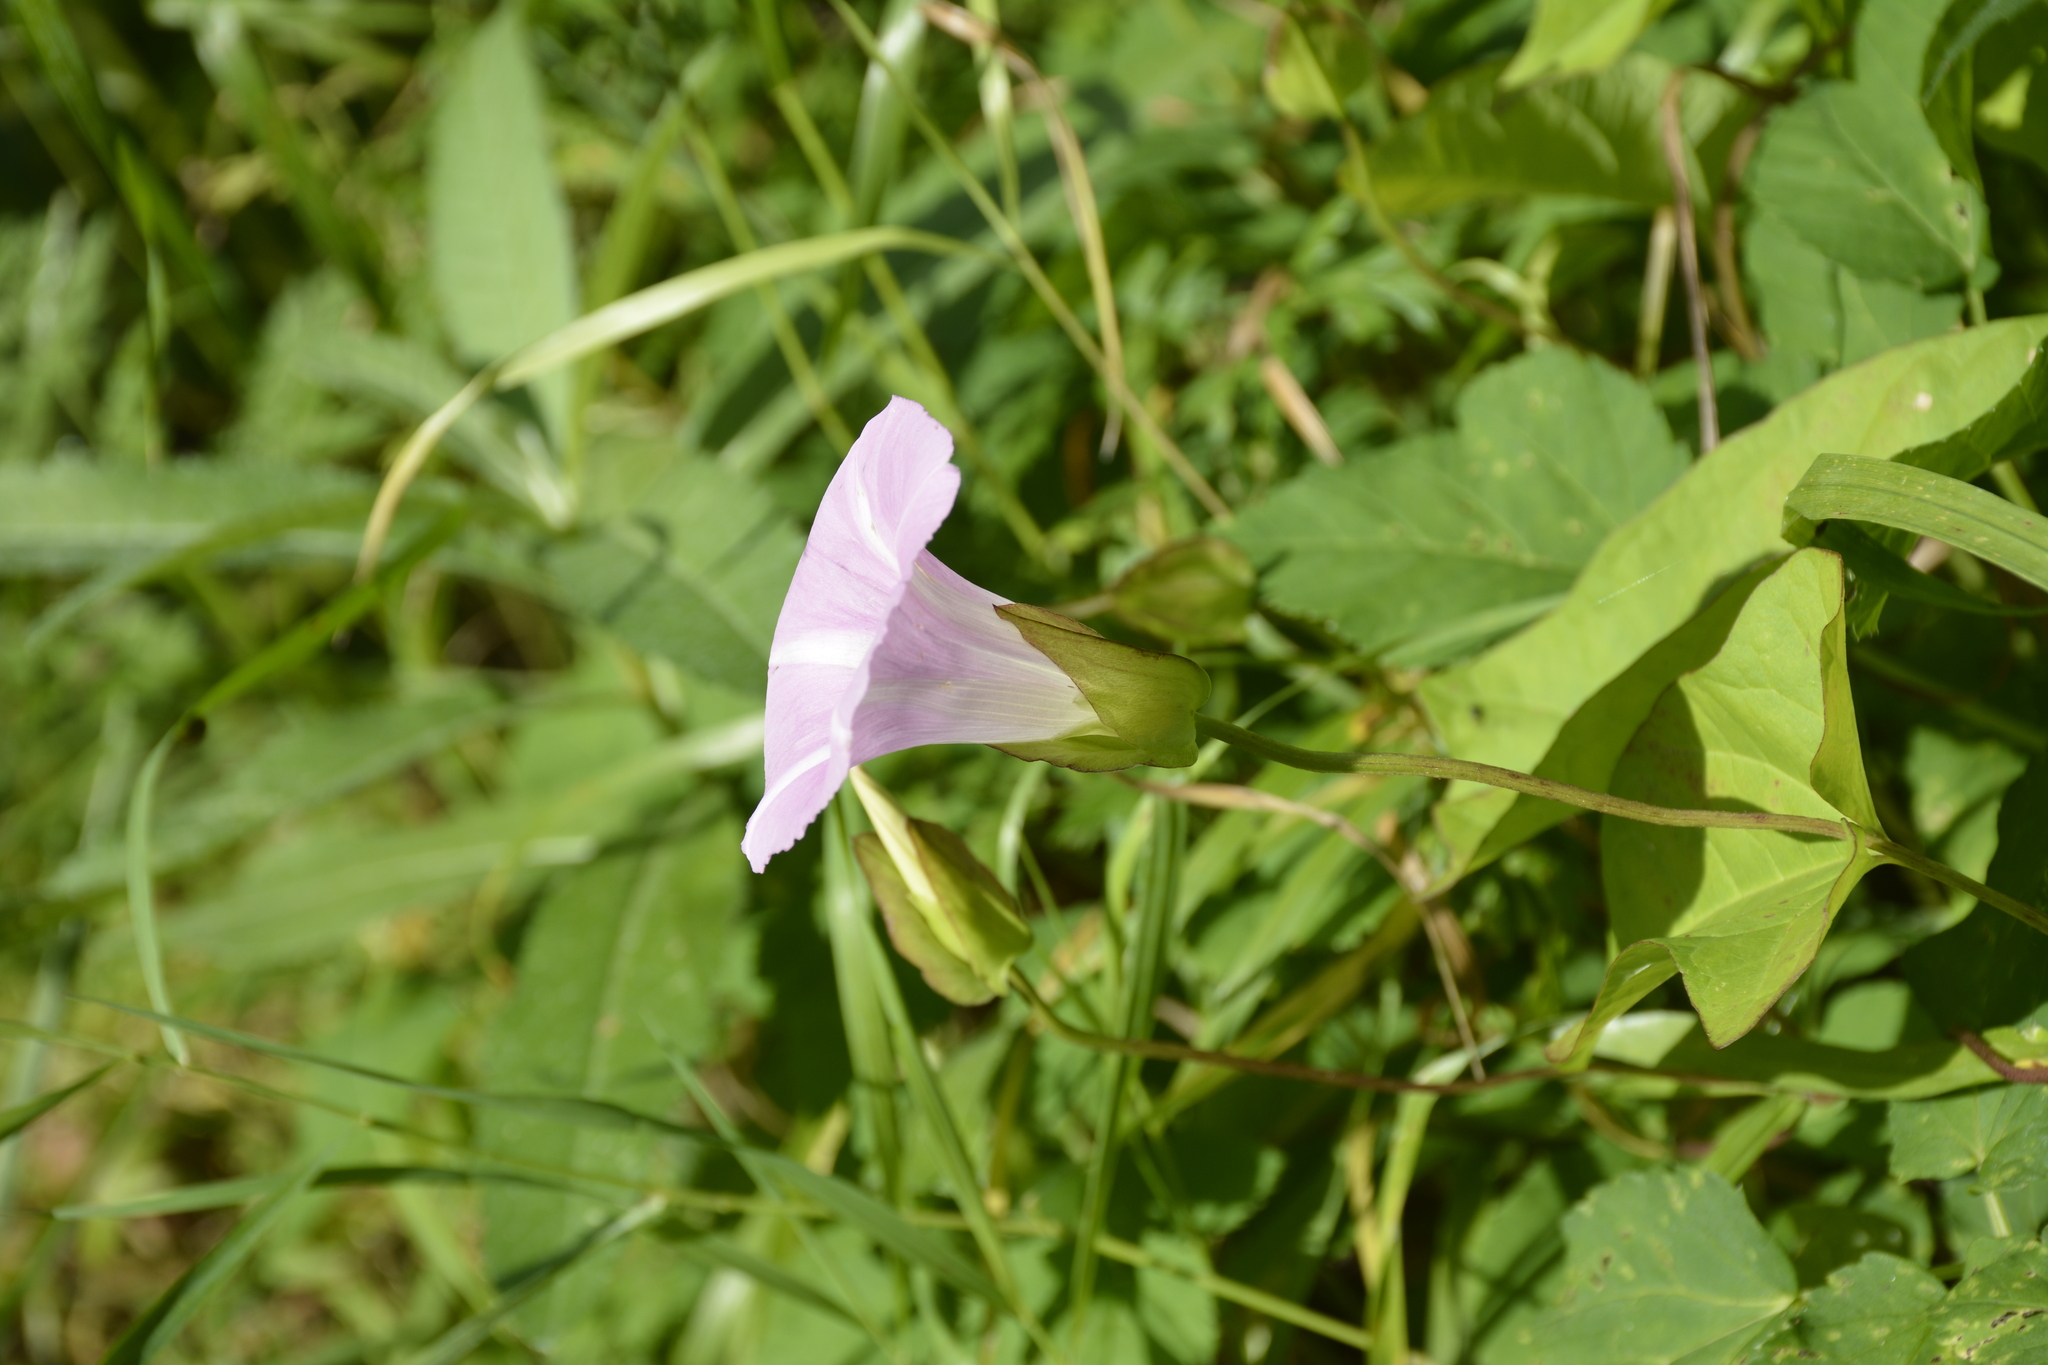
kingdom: Plantae
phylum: Tracheophyta
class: Magnoliopsida
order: Solanales
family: Convolvulaceae
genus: Calystegia
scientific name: Calystegia sepium
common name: Hedge bindweed
